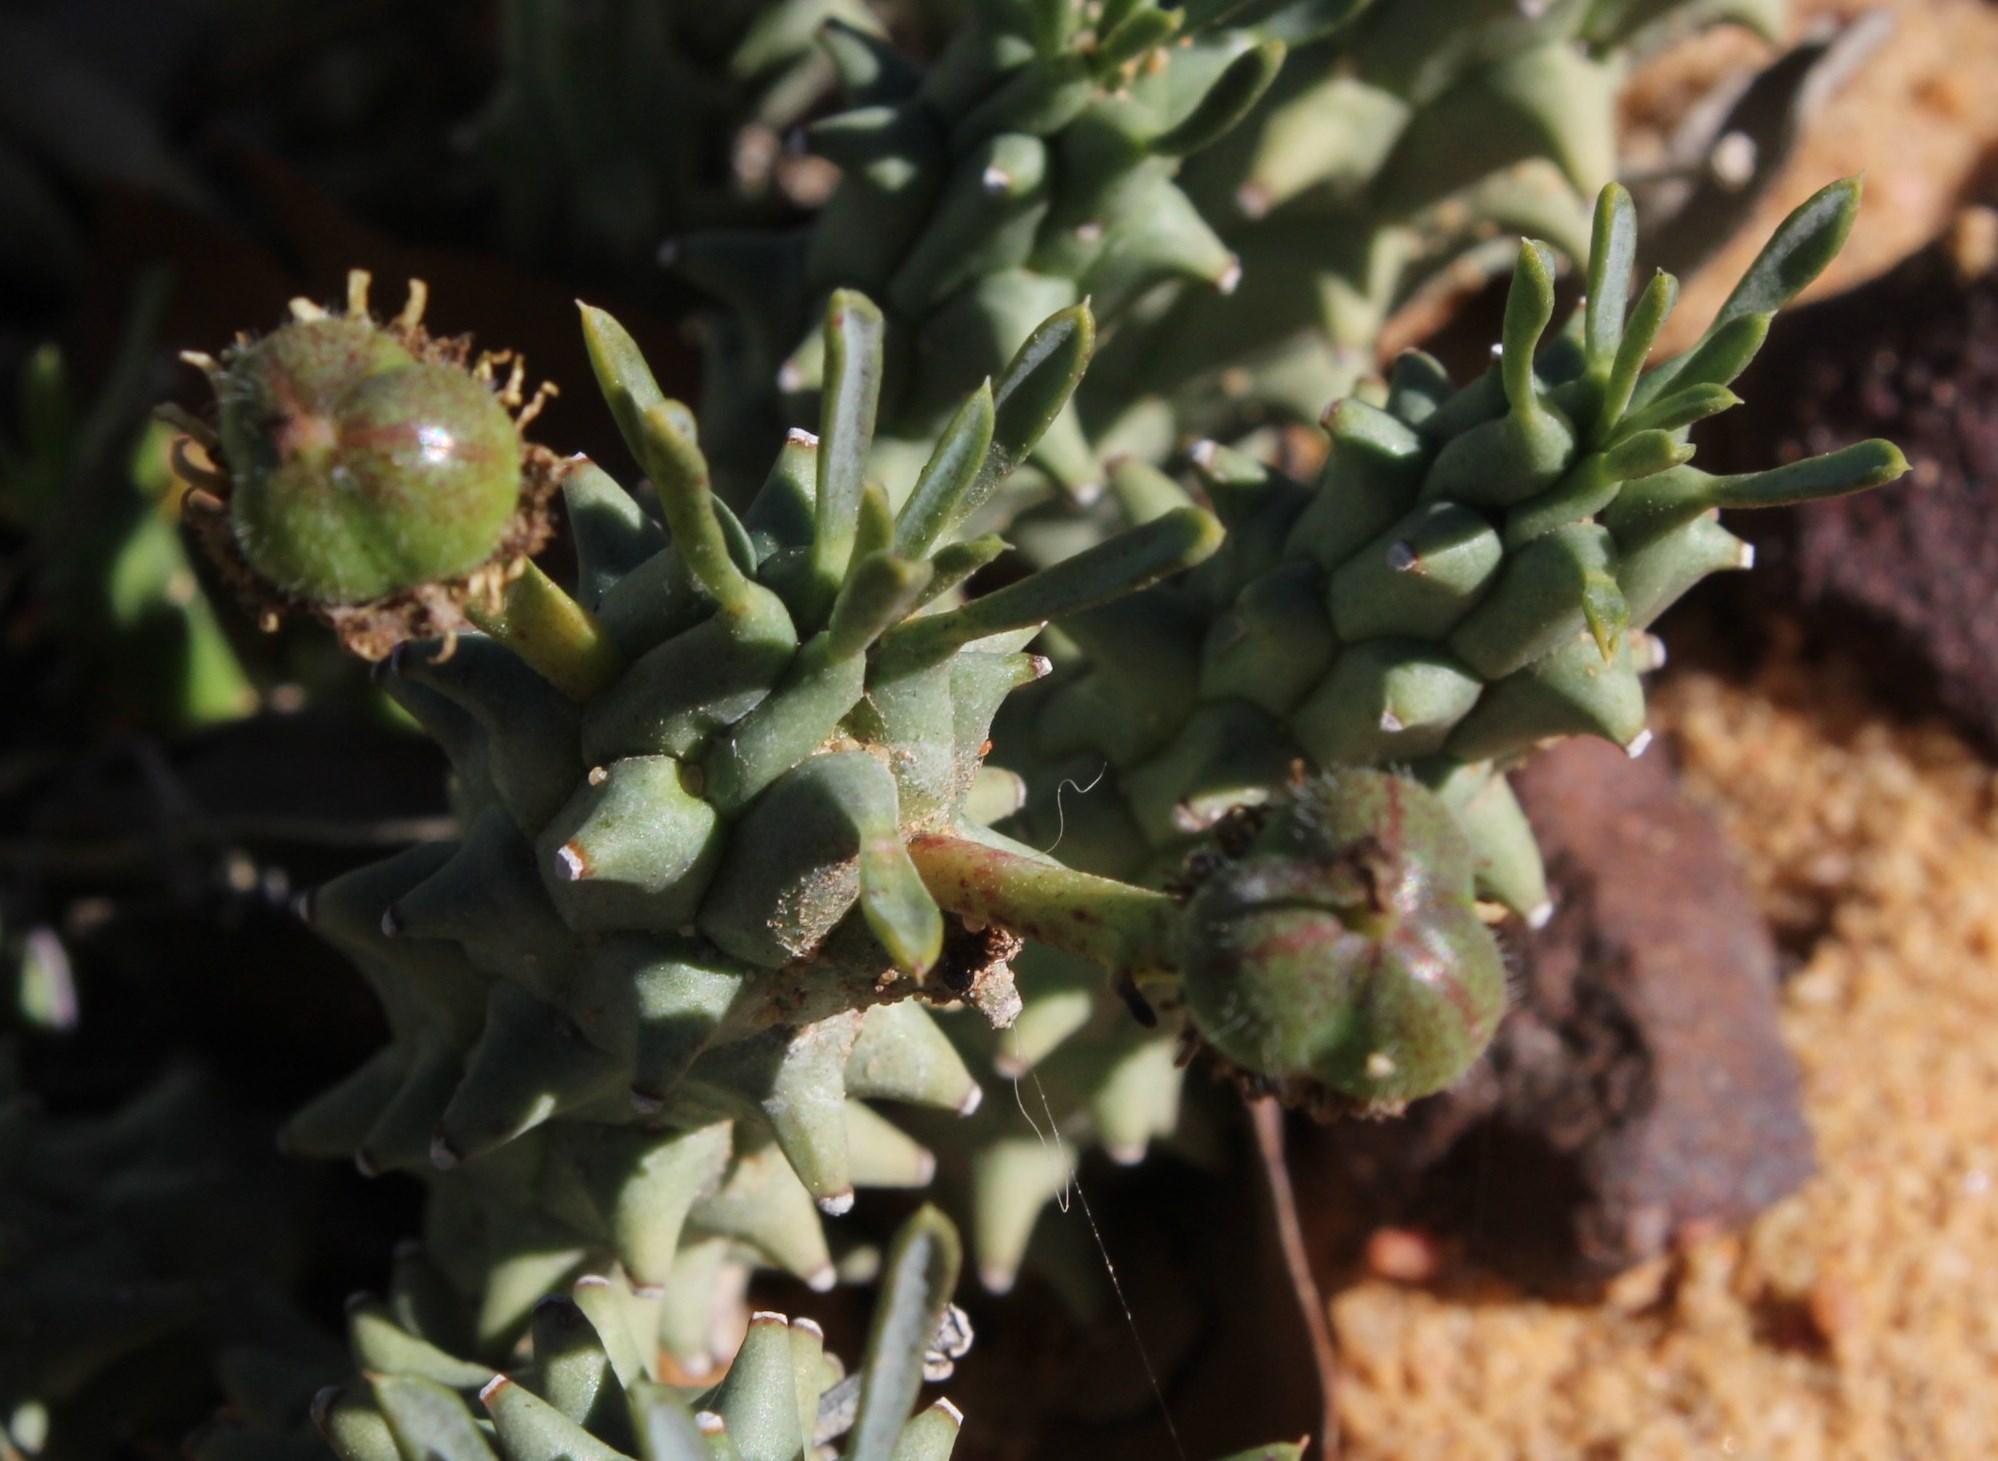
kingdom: Plantae
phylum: Tracheophyta
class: Magnoliopsida
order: Malpighiales
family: Euphorbiaceae
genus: Euphorbia
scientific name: Euphorbia caput-medusae
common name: Medusa's-head
